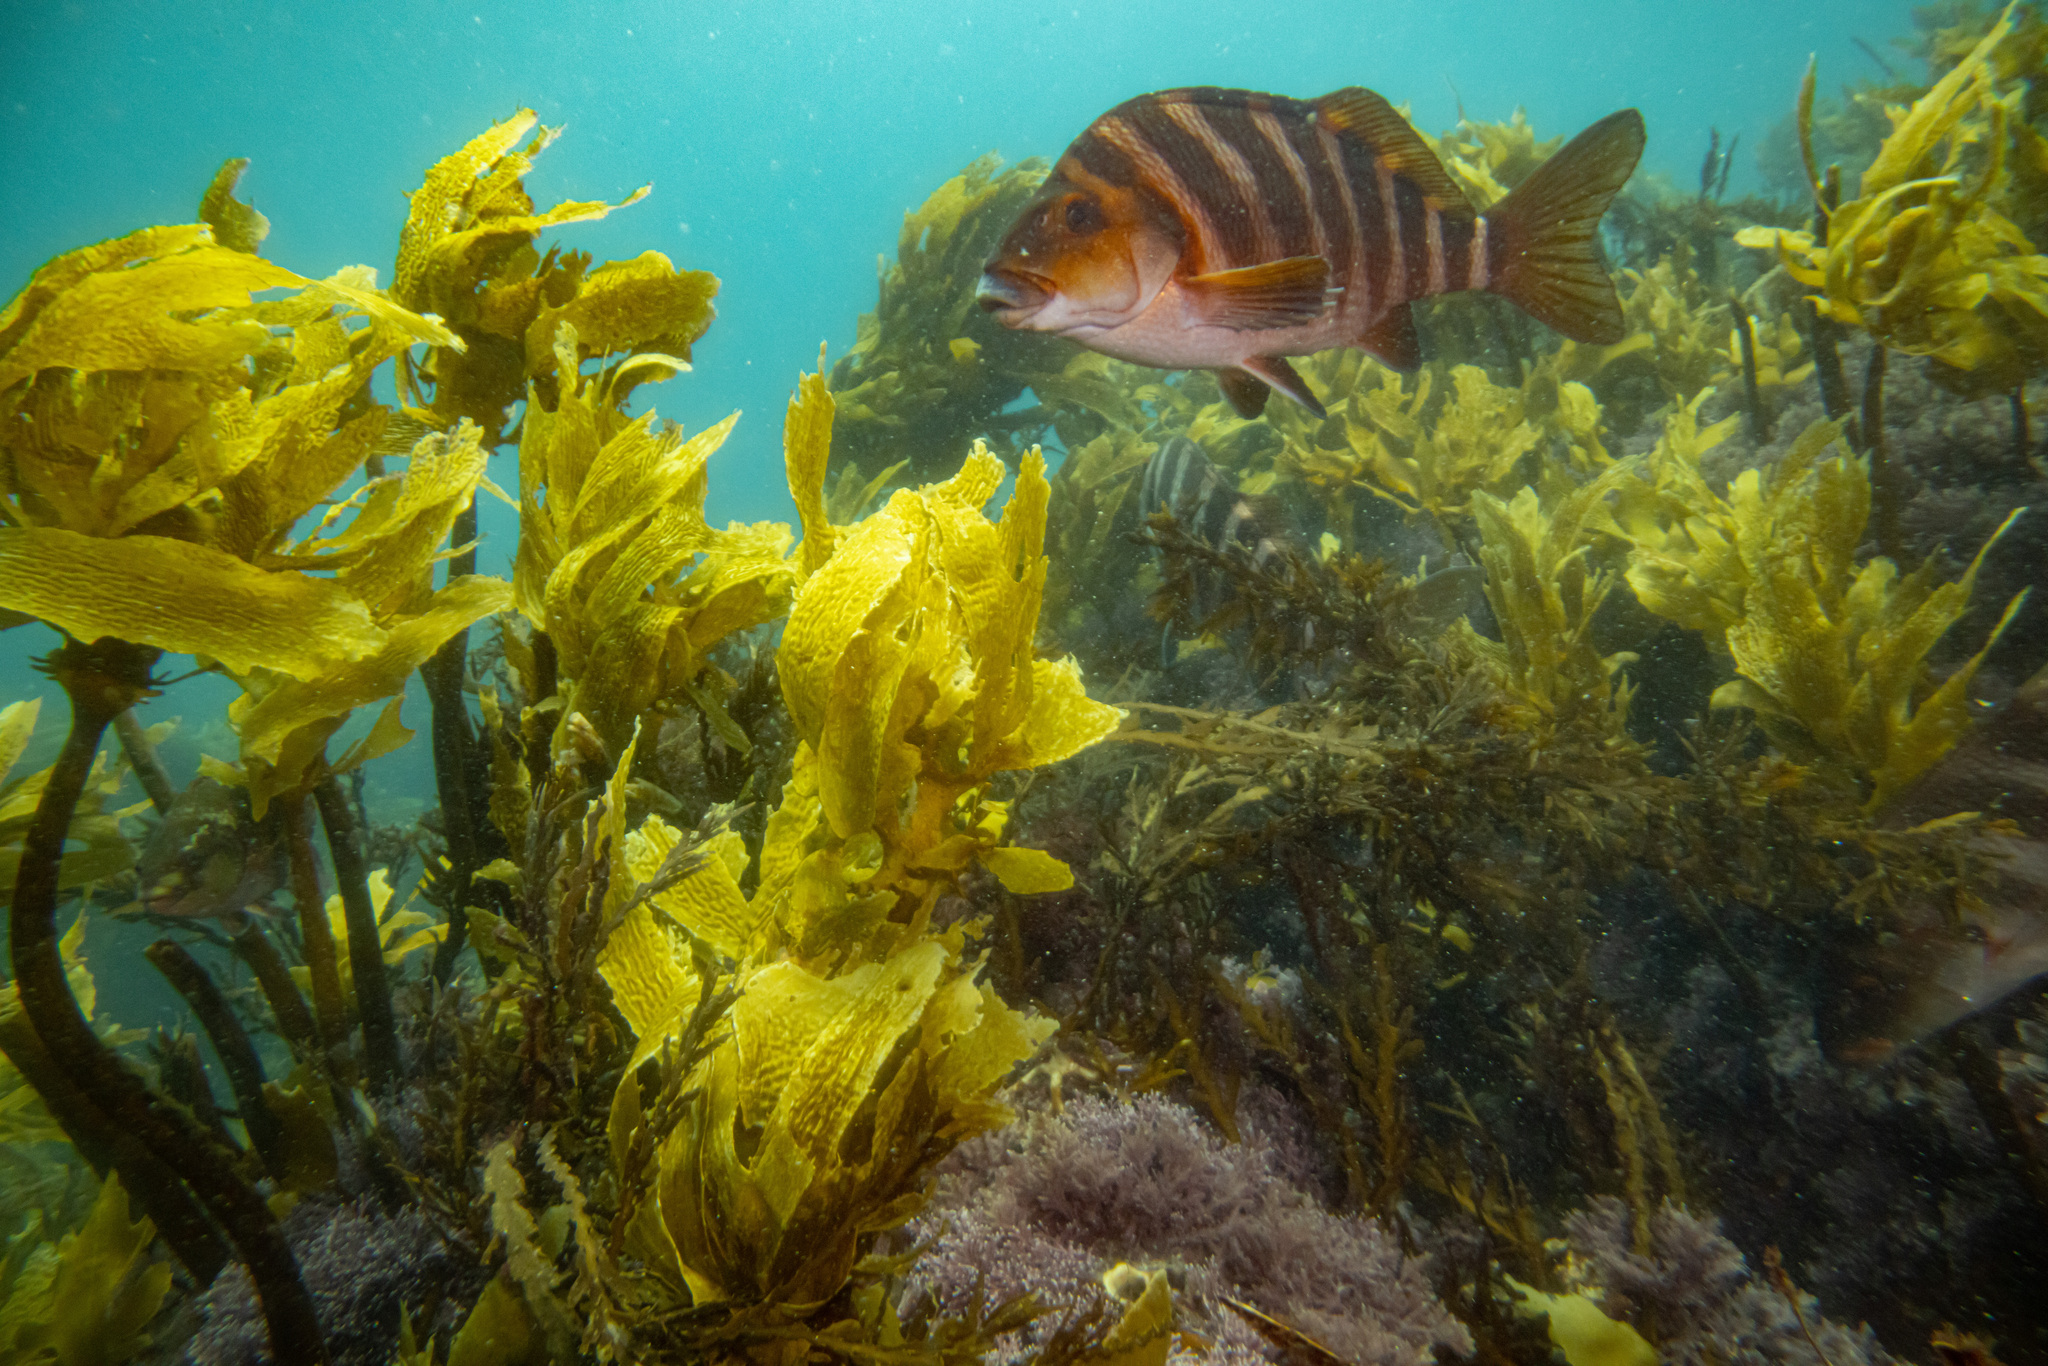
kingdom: Animalia
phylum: Chordata
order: Perciformes
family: Cheilodactylidae
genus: Cheilodactylus
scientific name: Cheilodactylus spectabilis
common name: Red moki
